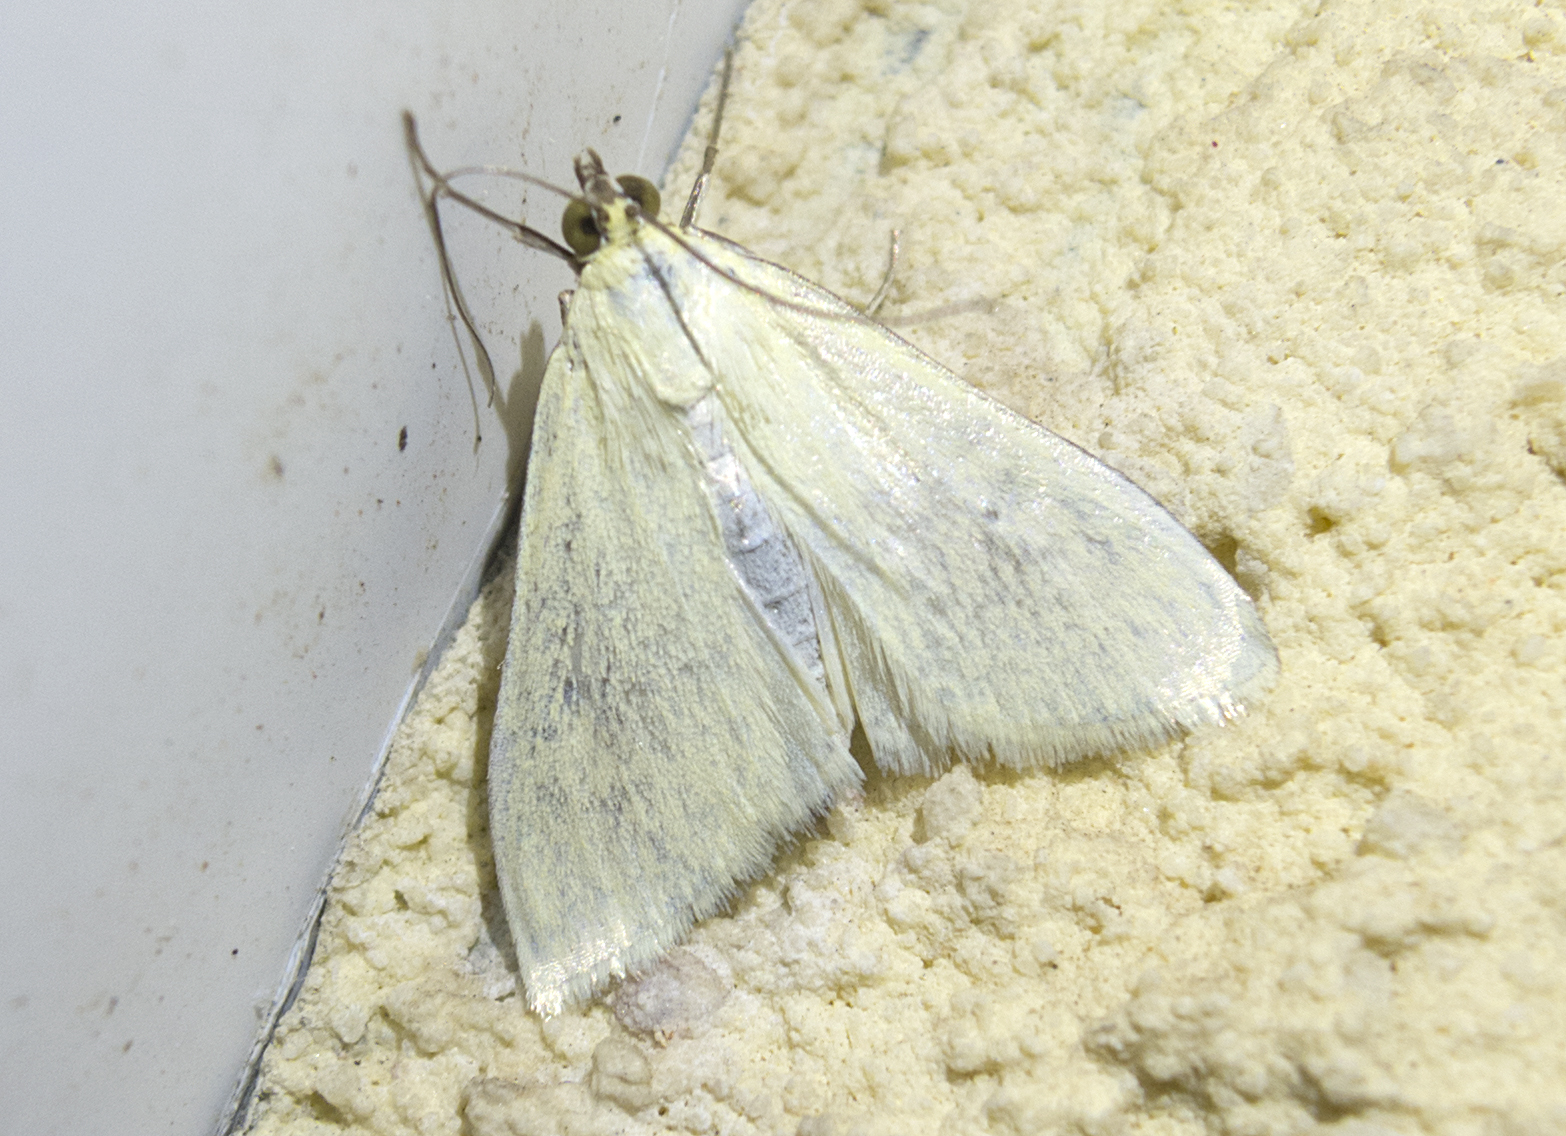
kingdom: Animalia
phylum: Arthropoda
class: Insecta
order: Lepidoptera
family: Crambidae
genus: Sitochroa
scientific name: Sitochroa palealis
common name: Greenish-yellow sitochroa moth
